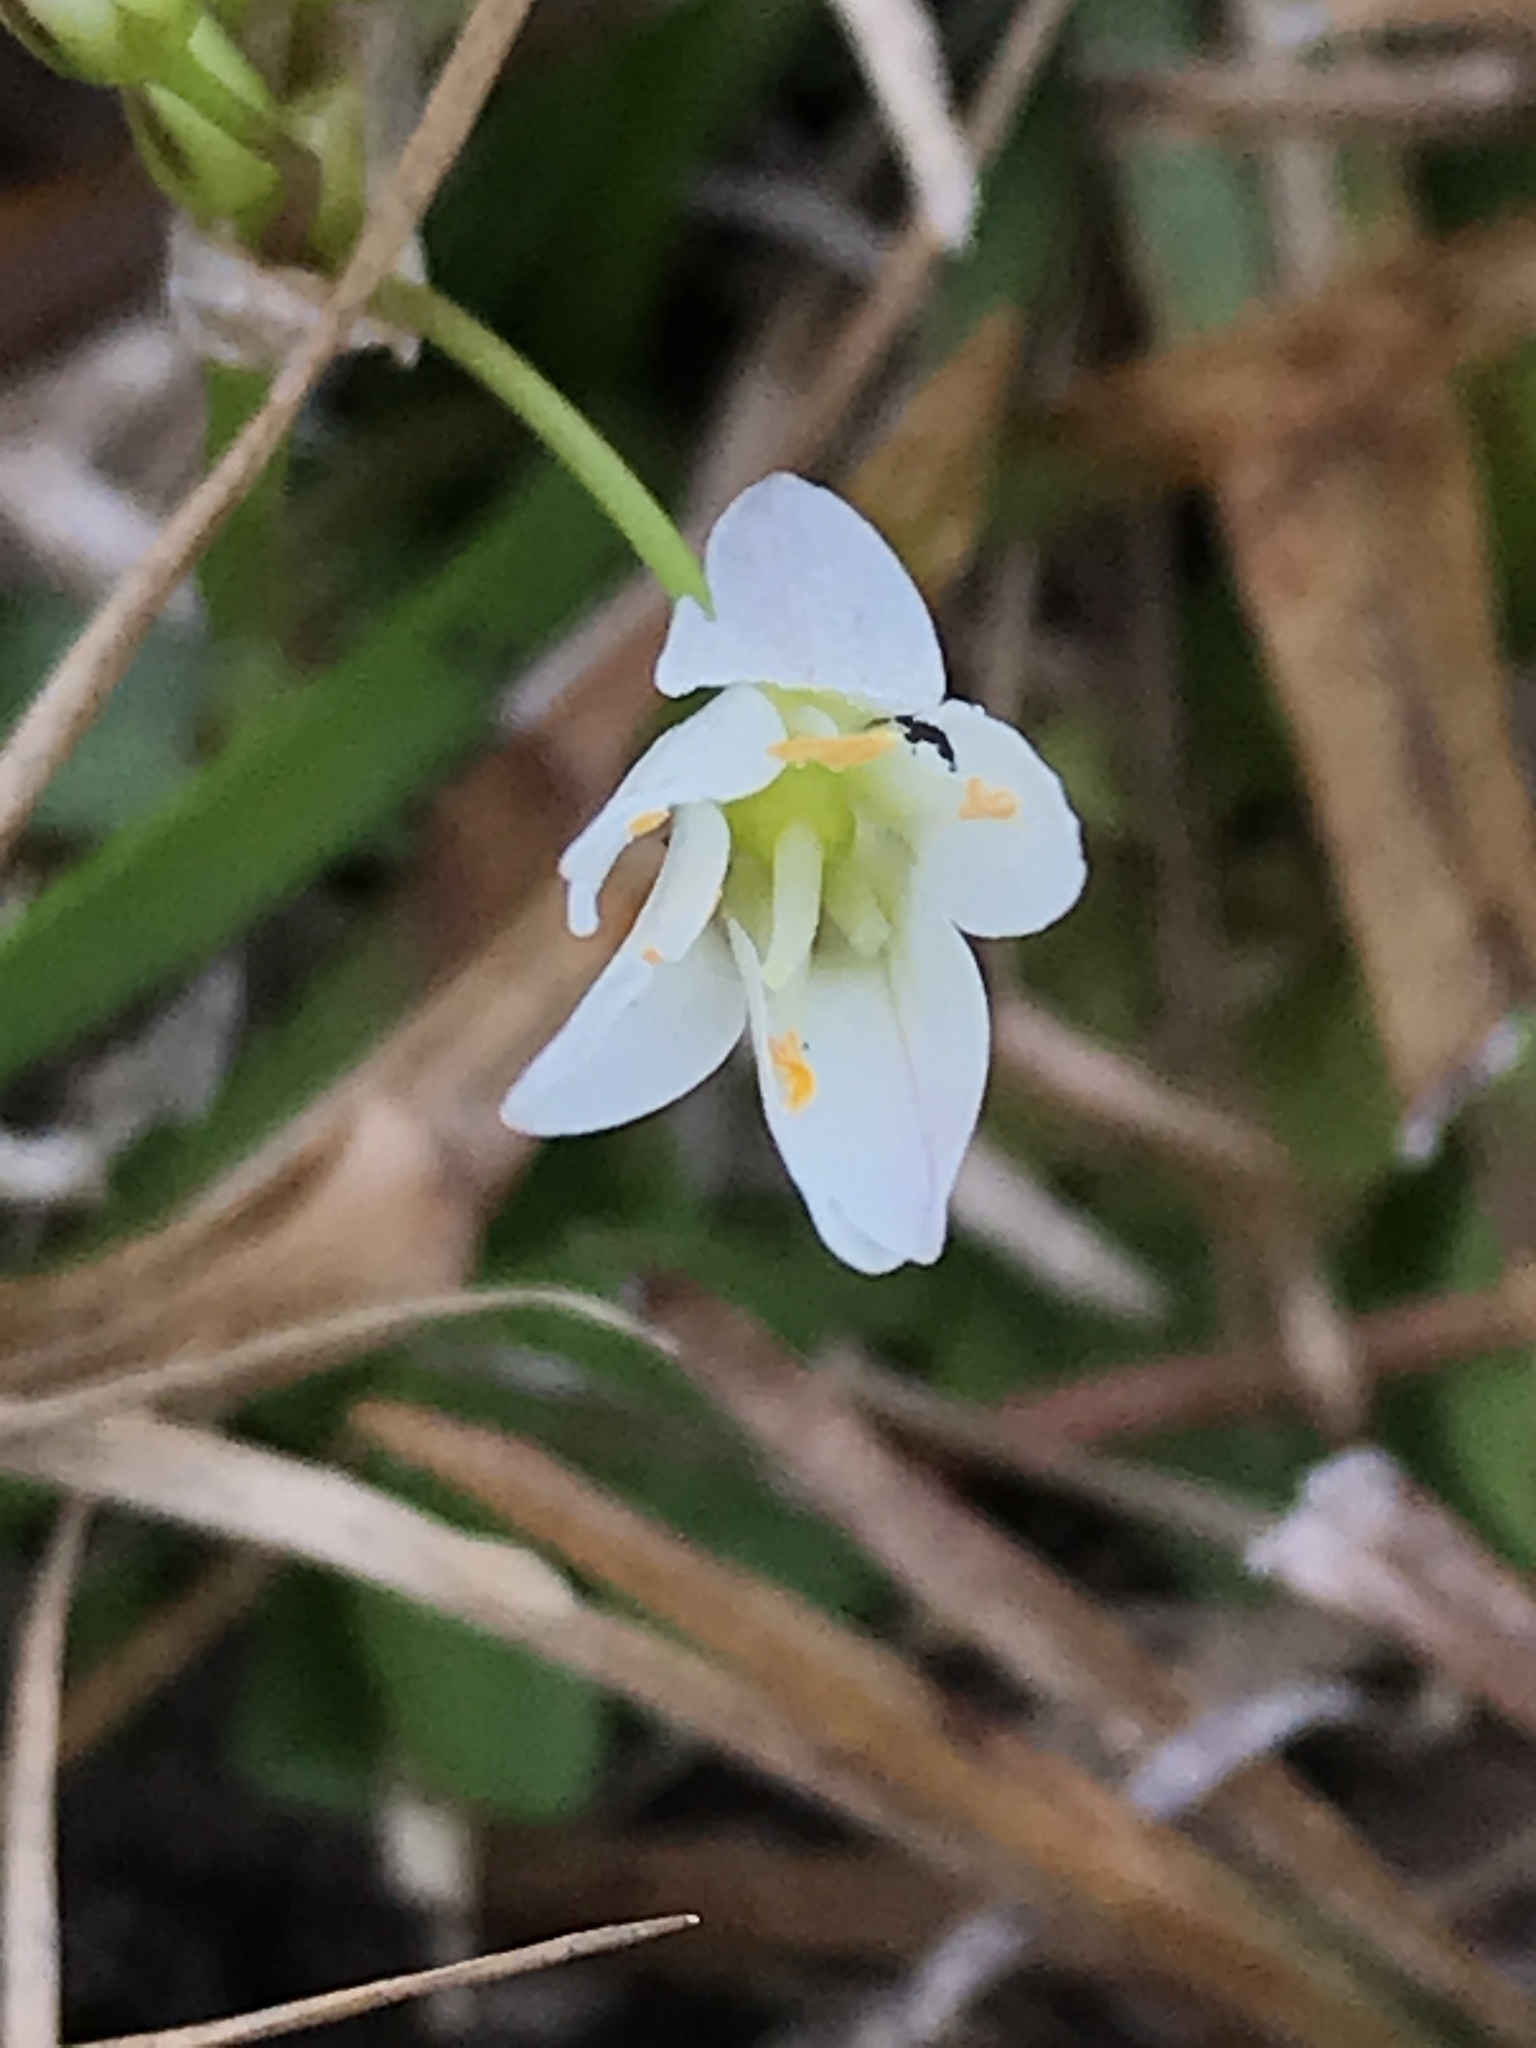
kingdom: Plantae
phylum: Tracheophyta
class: Liliopsida
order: Asparagales
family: Amaryllidaceae
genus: Nothoscordum
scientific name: Nothoscordum bivalve
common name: Crow-poison
